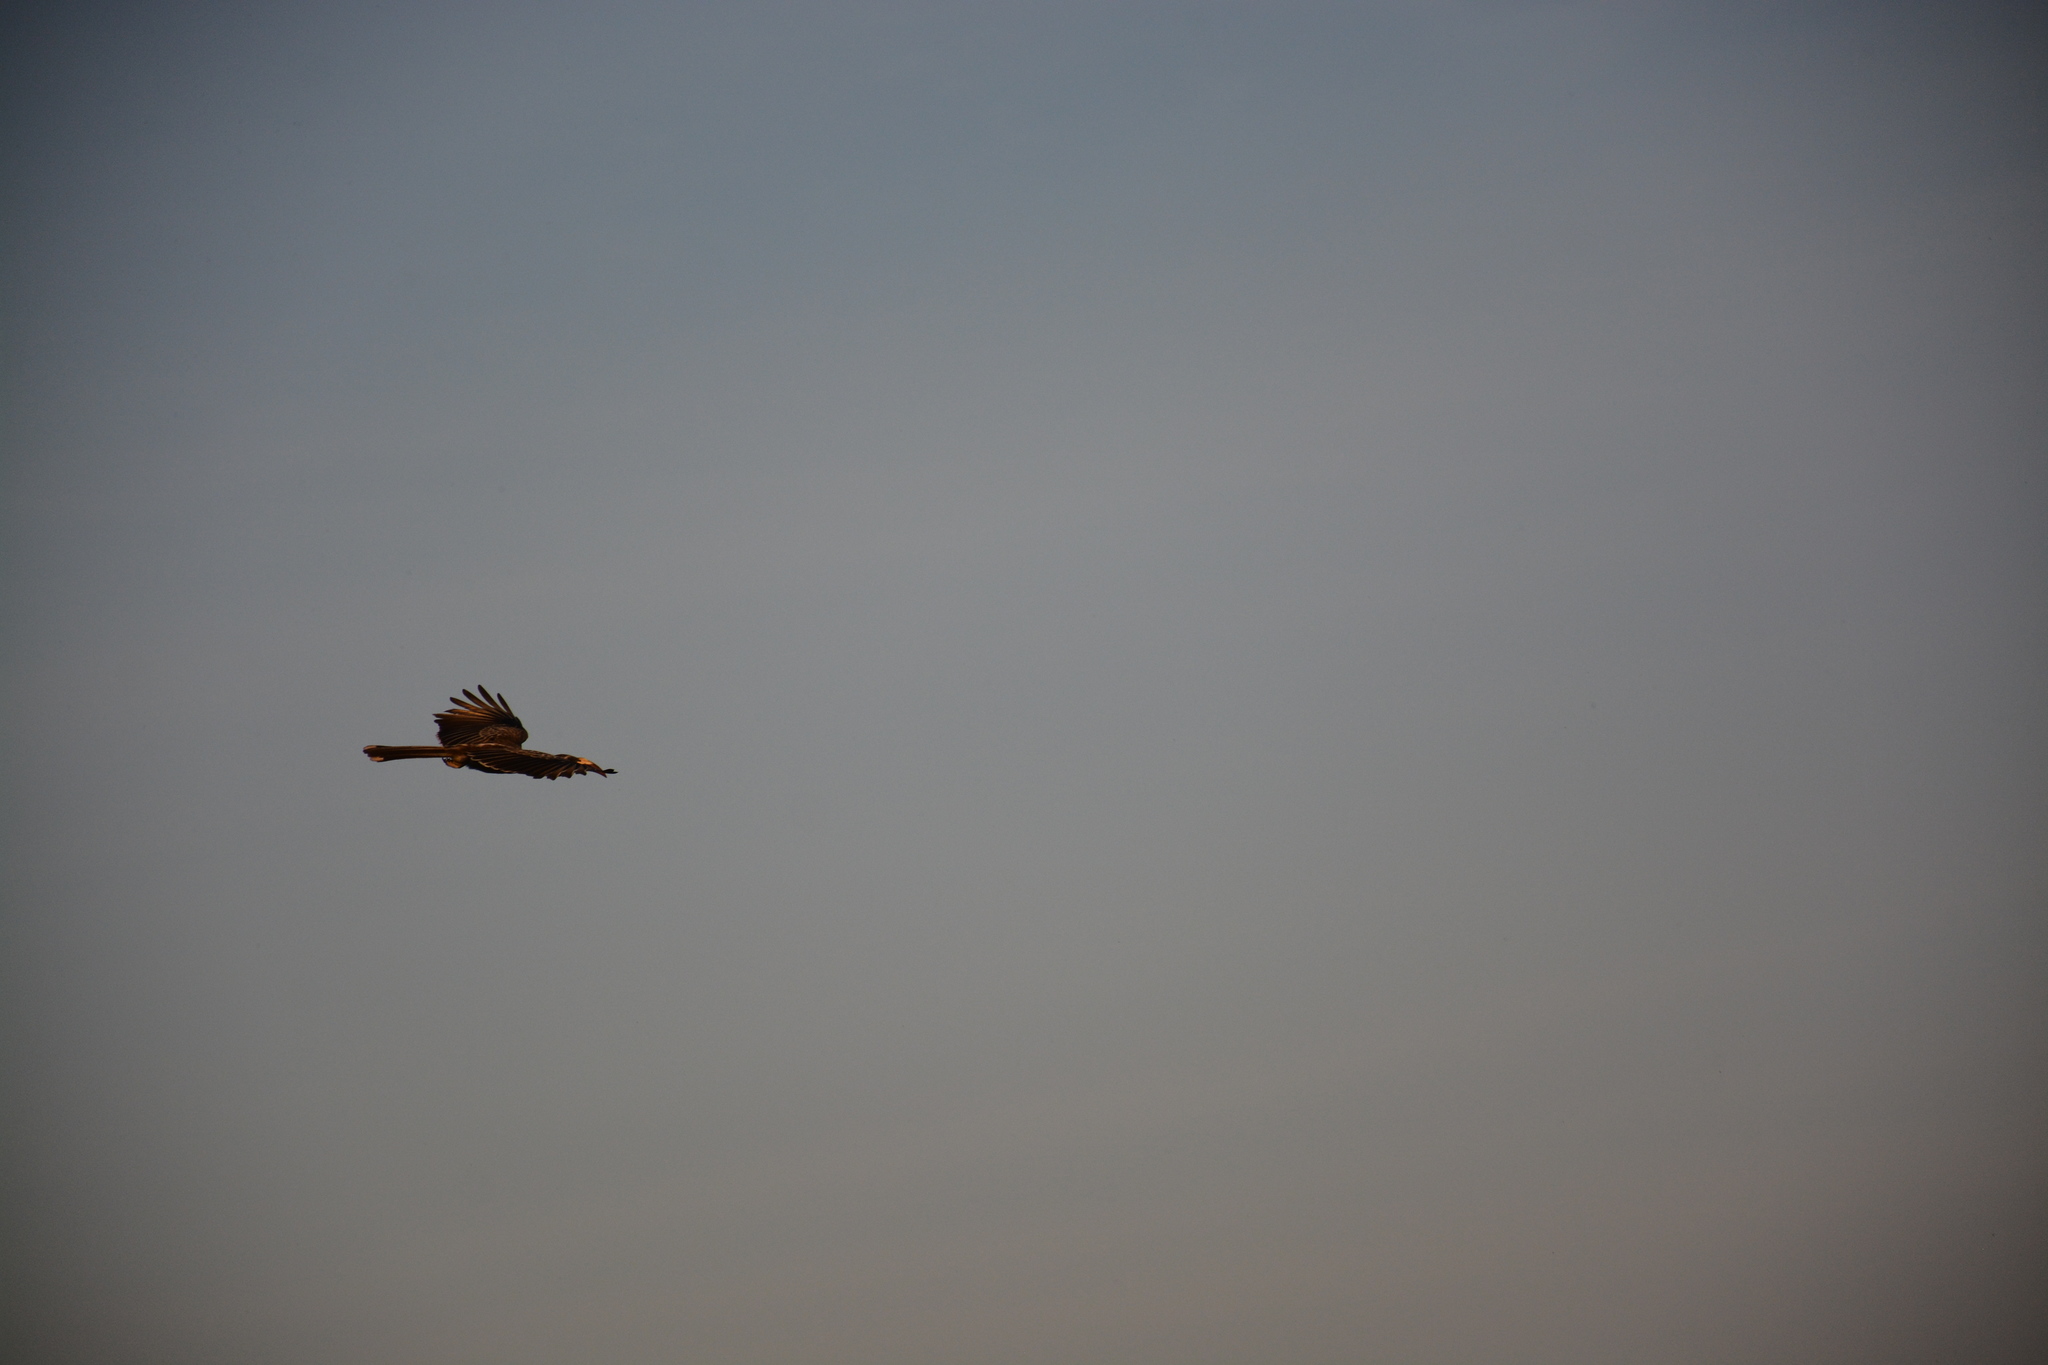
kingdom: Animalia
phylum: Chordata
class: Aves
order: Bucerotiformes
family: Bucerotidae
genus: Lophoceros
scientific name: Lophoceros nasutus
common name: African grey hornbill
